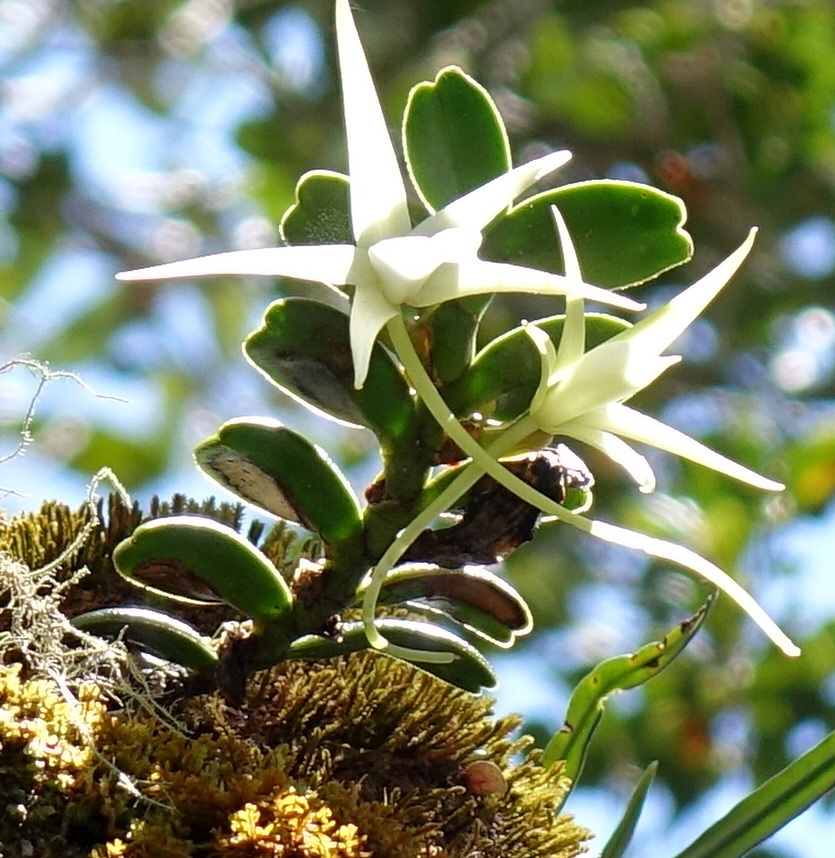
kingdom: Plantae
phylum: Tracheophyta
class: Liliopsida
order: Asparagales
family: Orchidaceae
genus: Angraecum
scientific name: Angraecum dryadum
